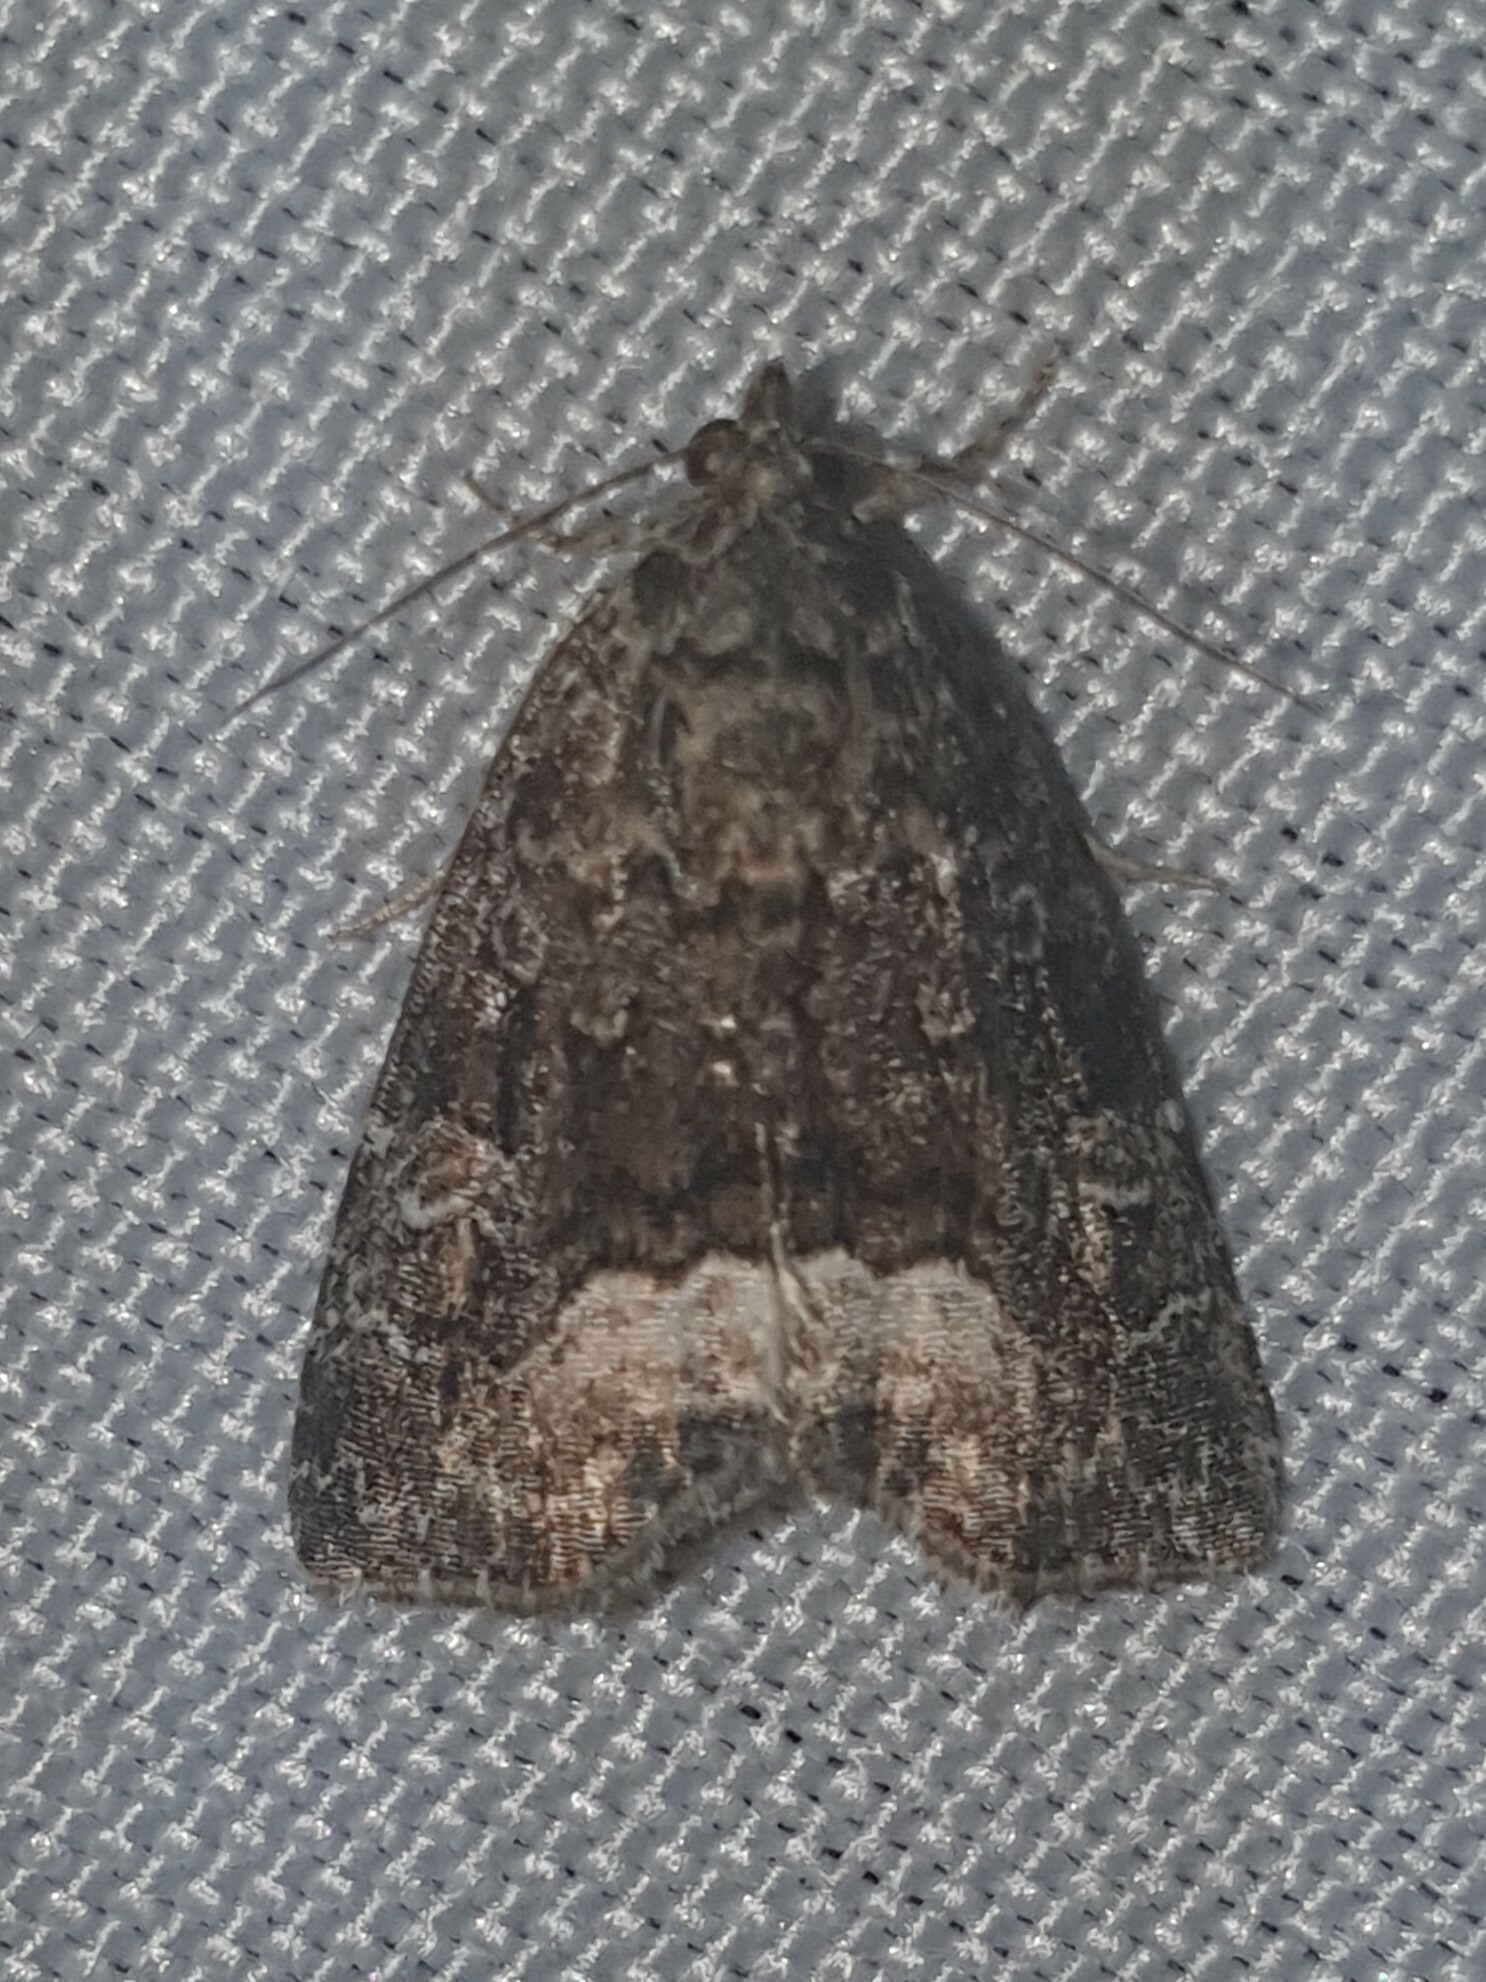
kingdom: Animalia
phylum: Arthropoda
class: Insecta
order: Lepidoptera
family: Noctuidae
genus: Deltote
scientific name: Deltote pygarga
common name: Marbled white spot
